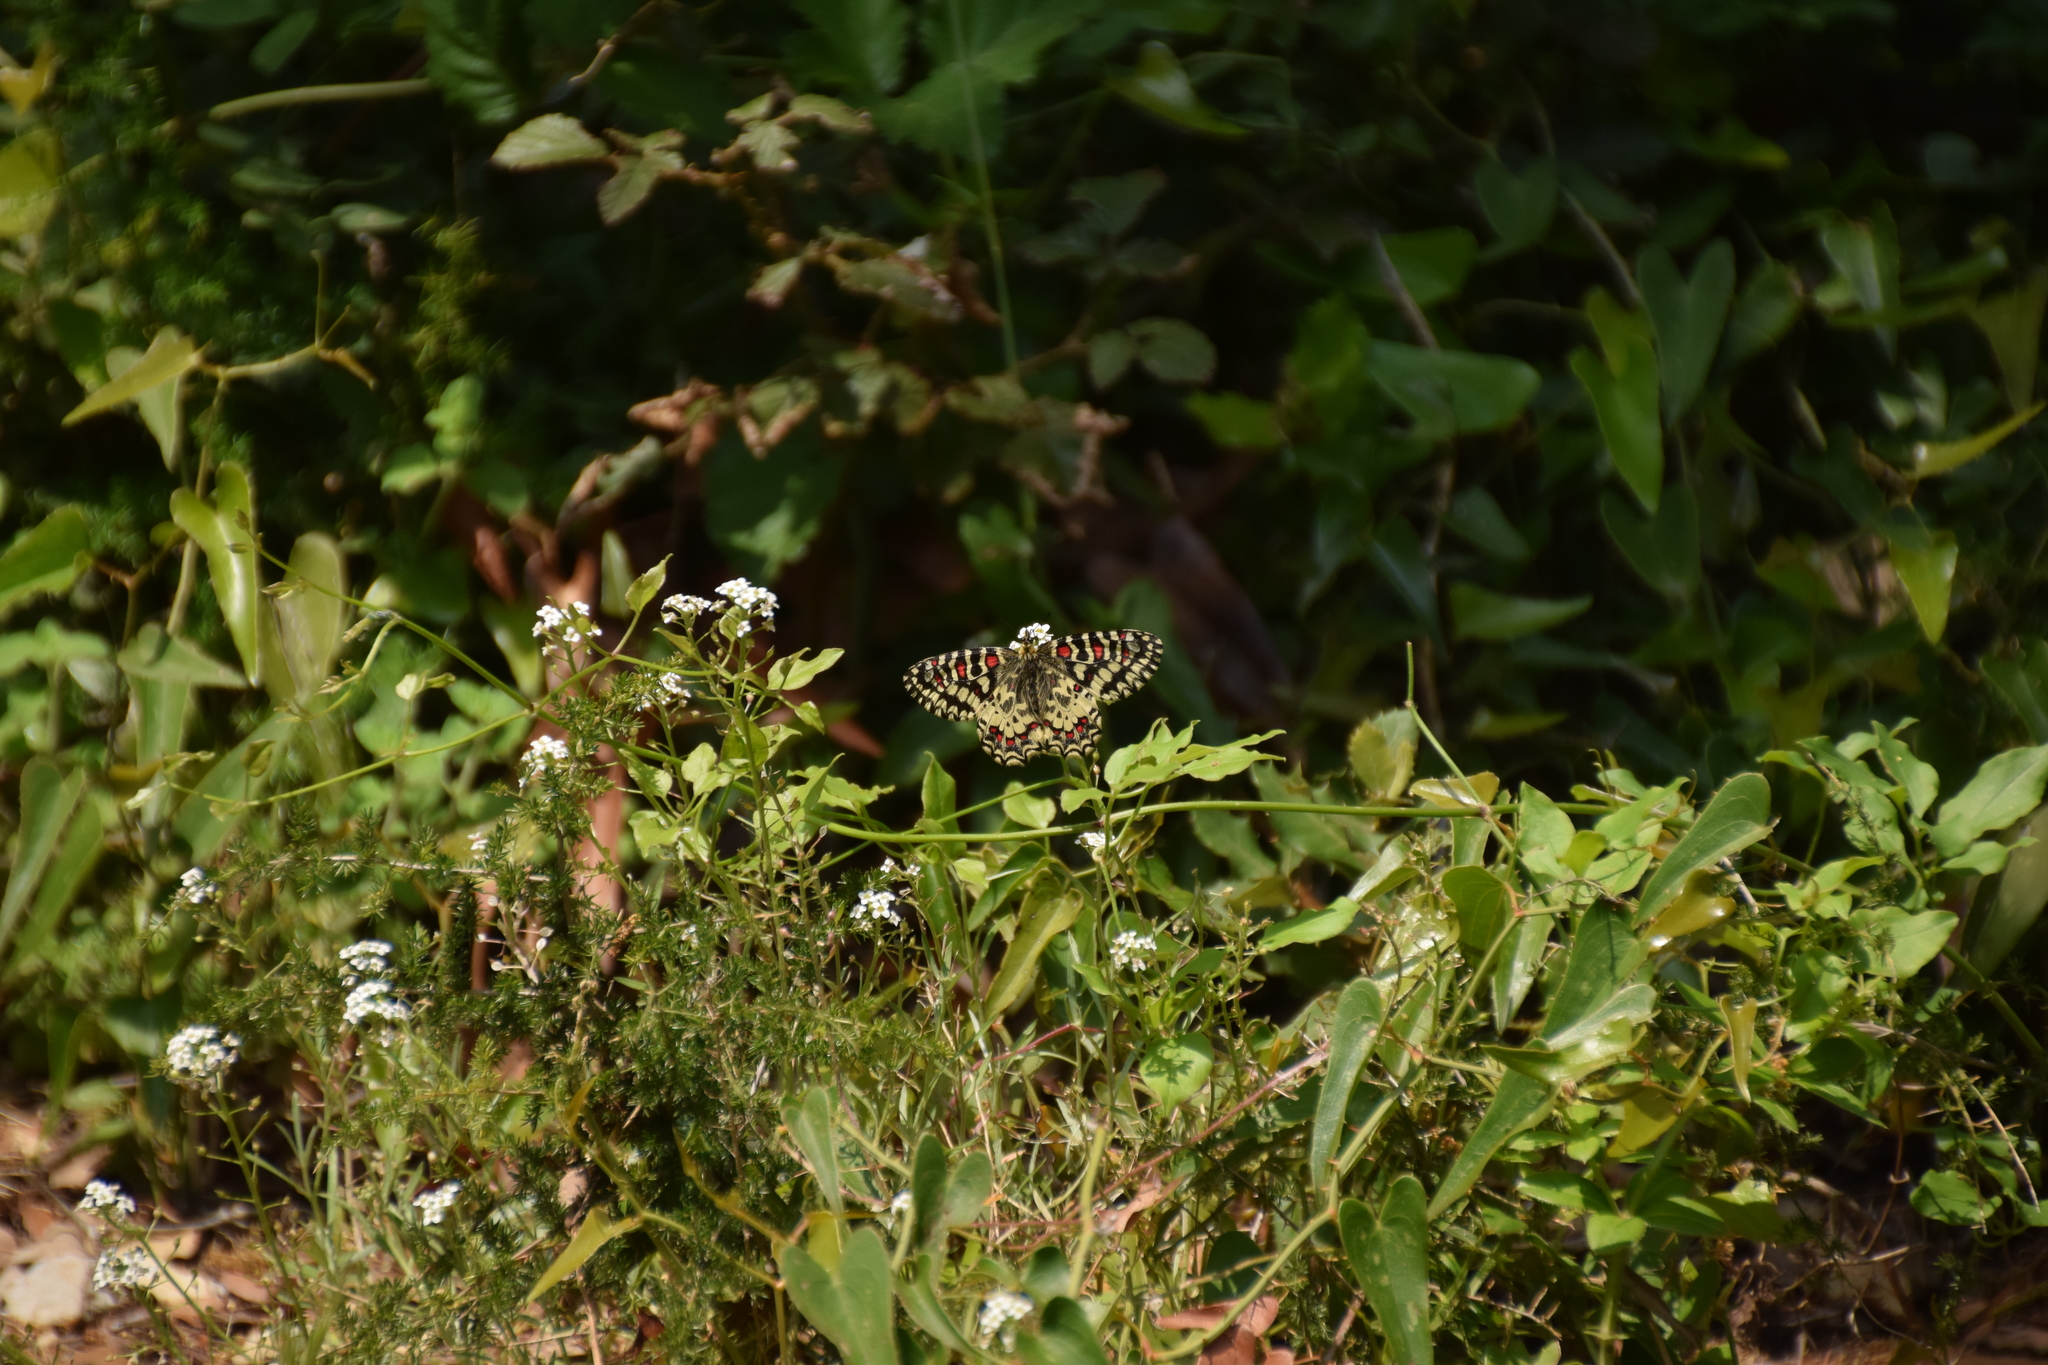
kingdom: Animalia
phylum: Arthropoda
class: Insecta
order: Lepidoptera
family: Papilionidae
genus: Zerynthia
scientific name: Zerynthia rumina
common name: Spanish festoon
